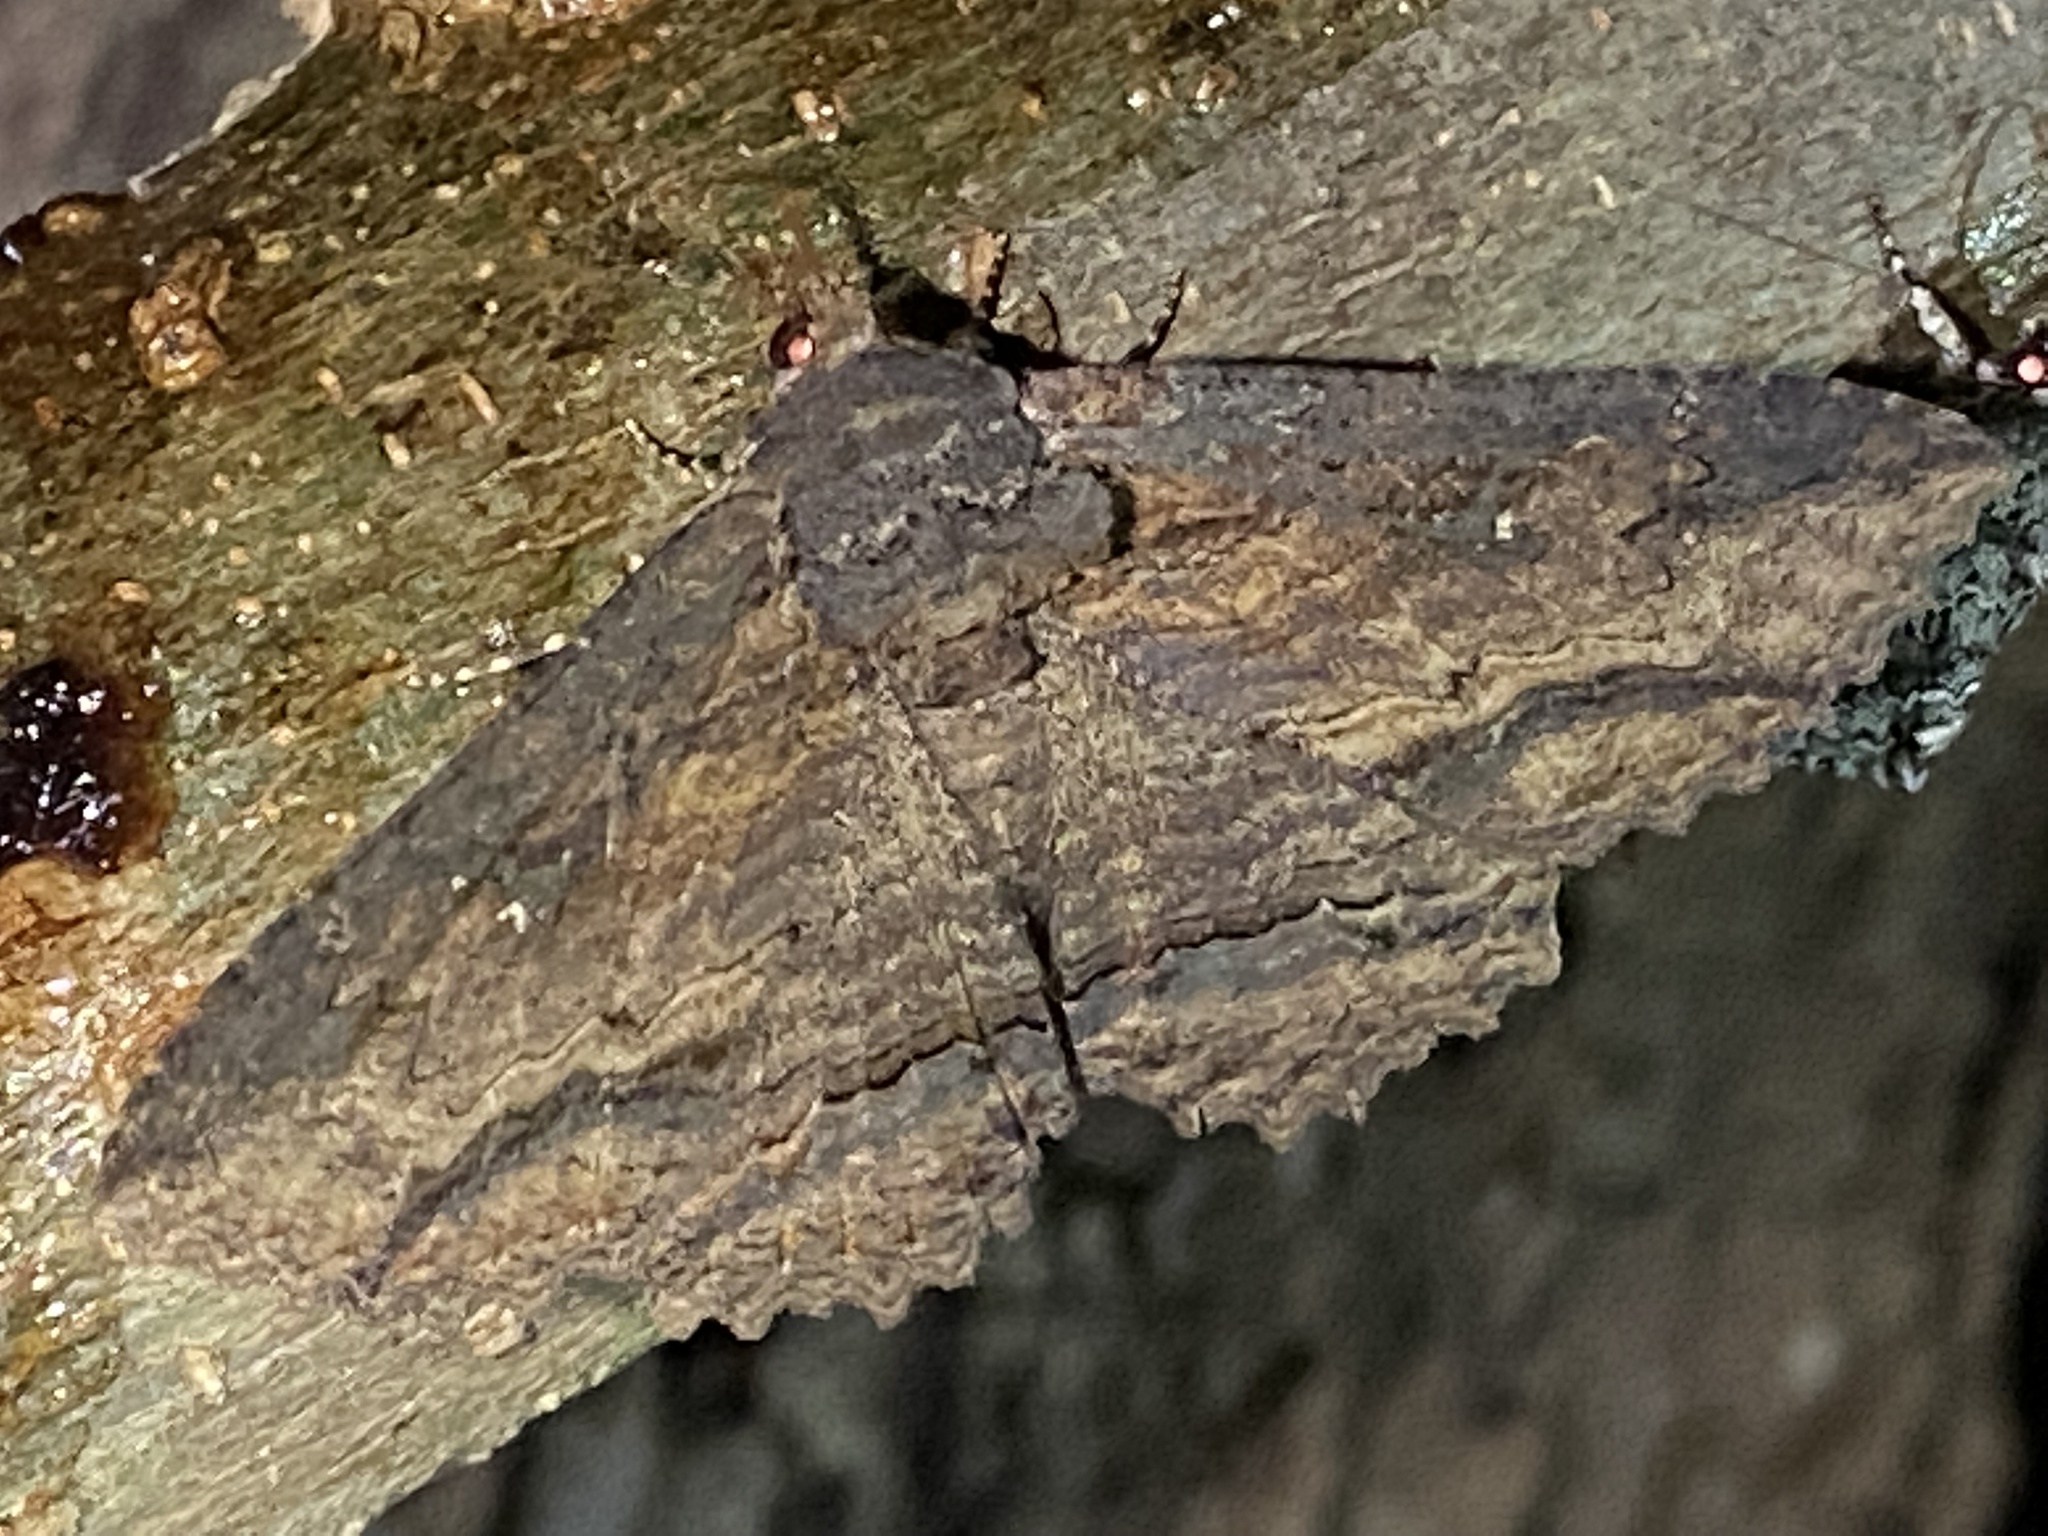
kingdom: Animalia
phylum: Arthropoda
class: Insecta
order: Lepidoptera
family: Erebidae
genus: Zale
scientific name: Zale lunata
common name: Lunate zale moth
